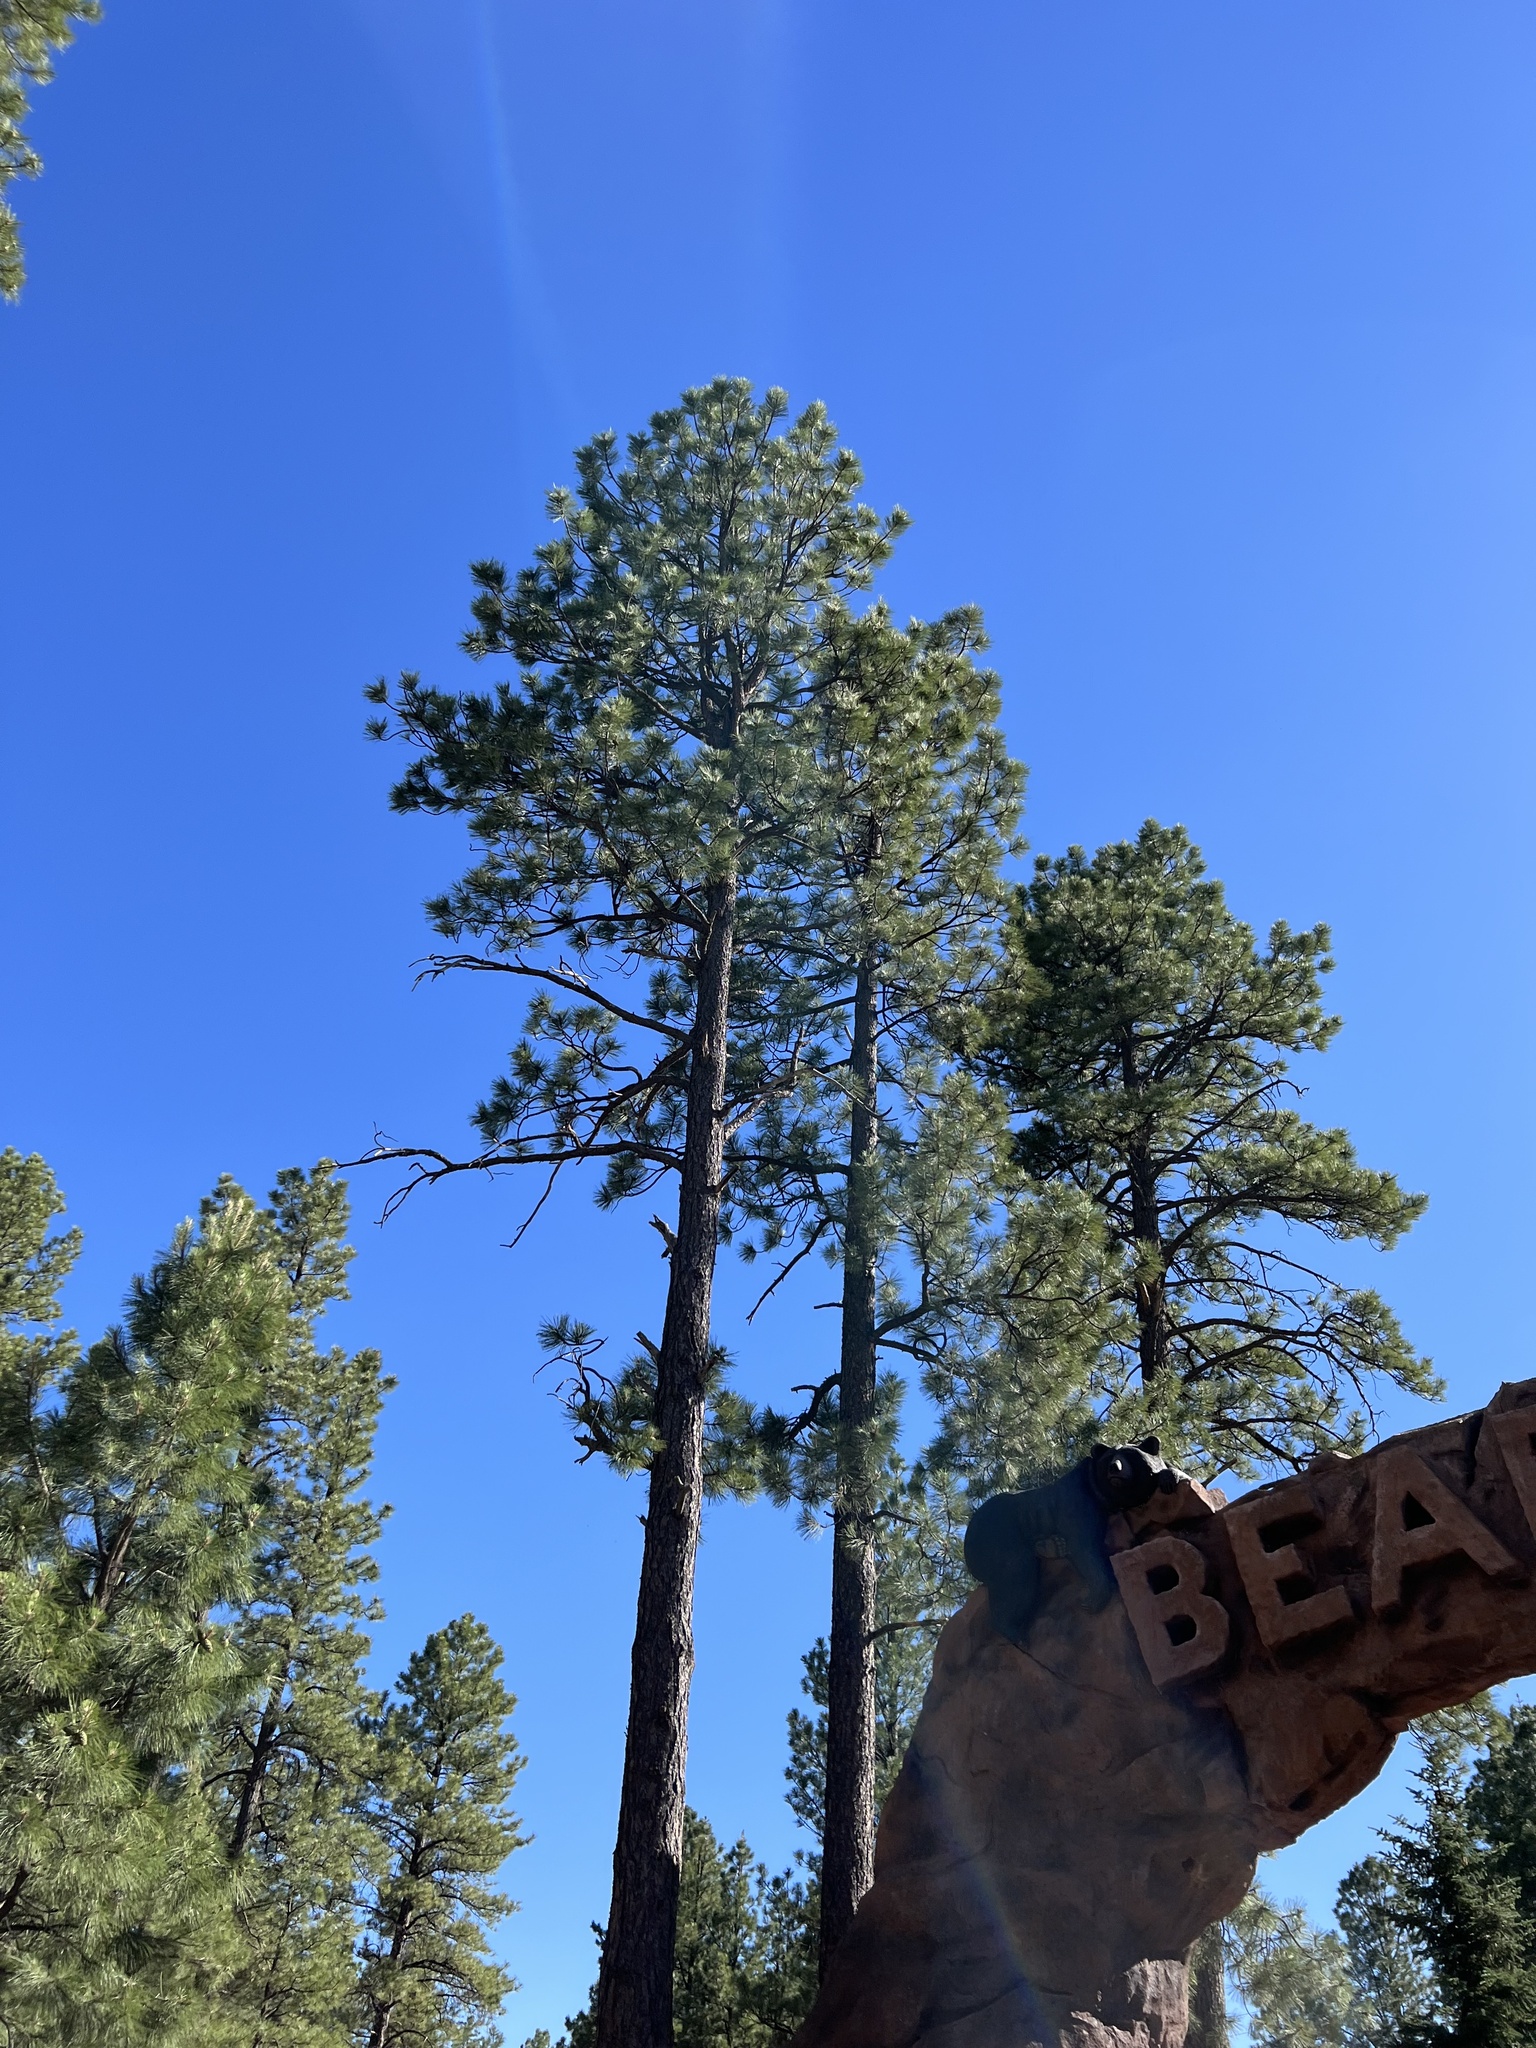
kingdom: Plantae
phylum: Tracheophyta
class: Pinopsida
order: Pinales
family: Pinaceae
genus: Pinus
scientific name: Pinus ponderosa
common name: Western yellow-pine
